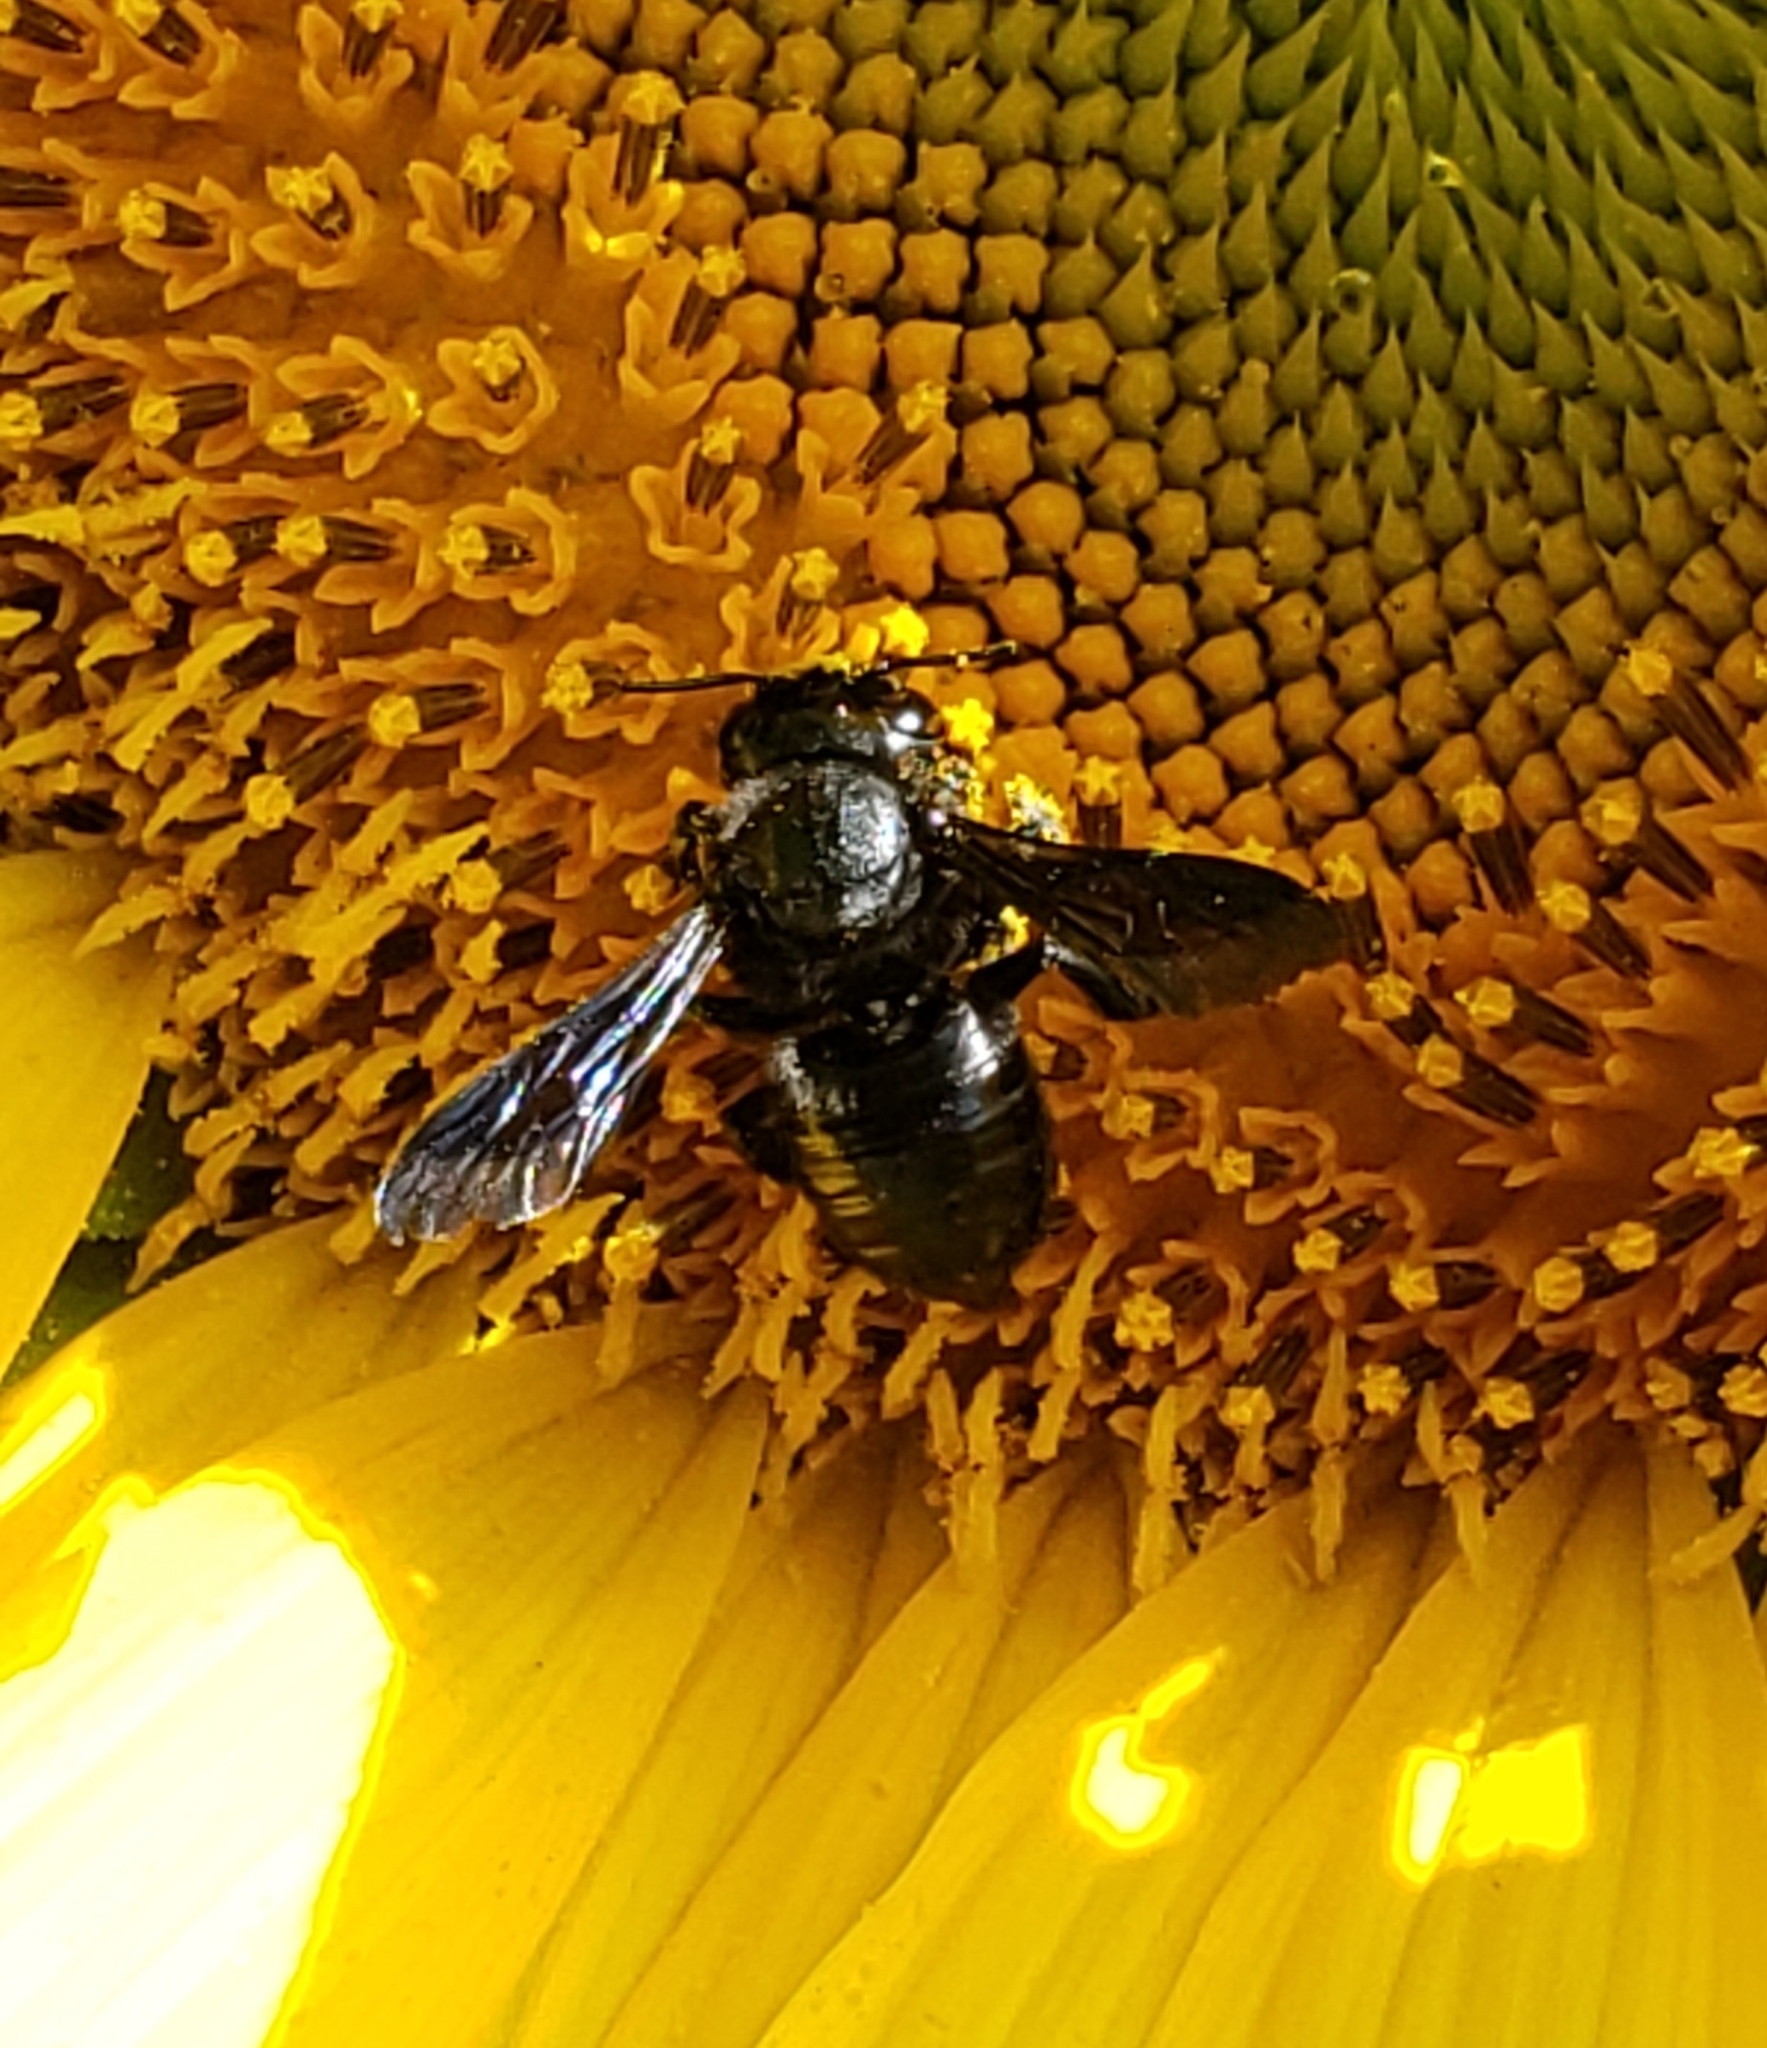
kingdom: Animalia
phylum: Arthropoda
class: Insecta
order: Hymenoptera
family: Megachilidae
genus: Megachile
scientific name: Megachile xylocopoides
